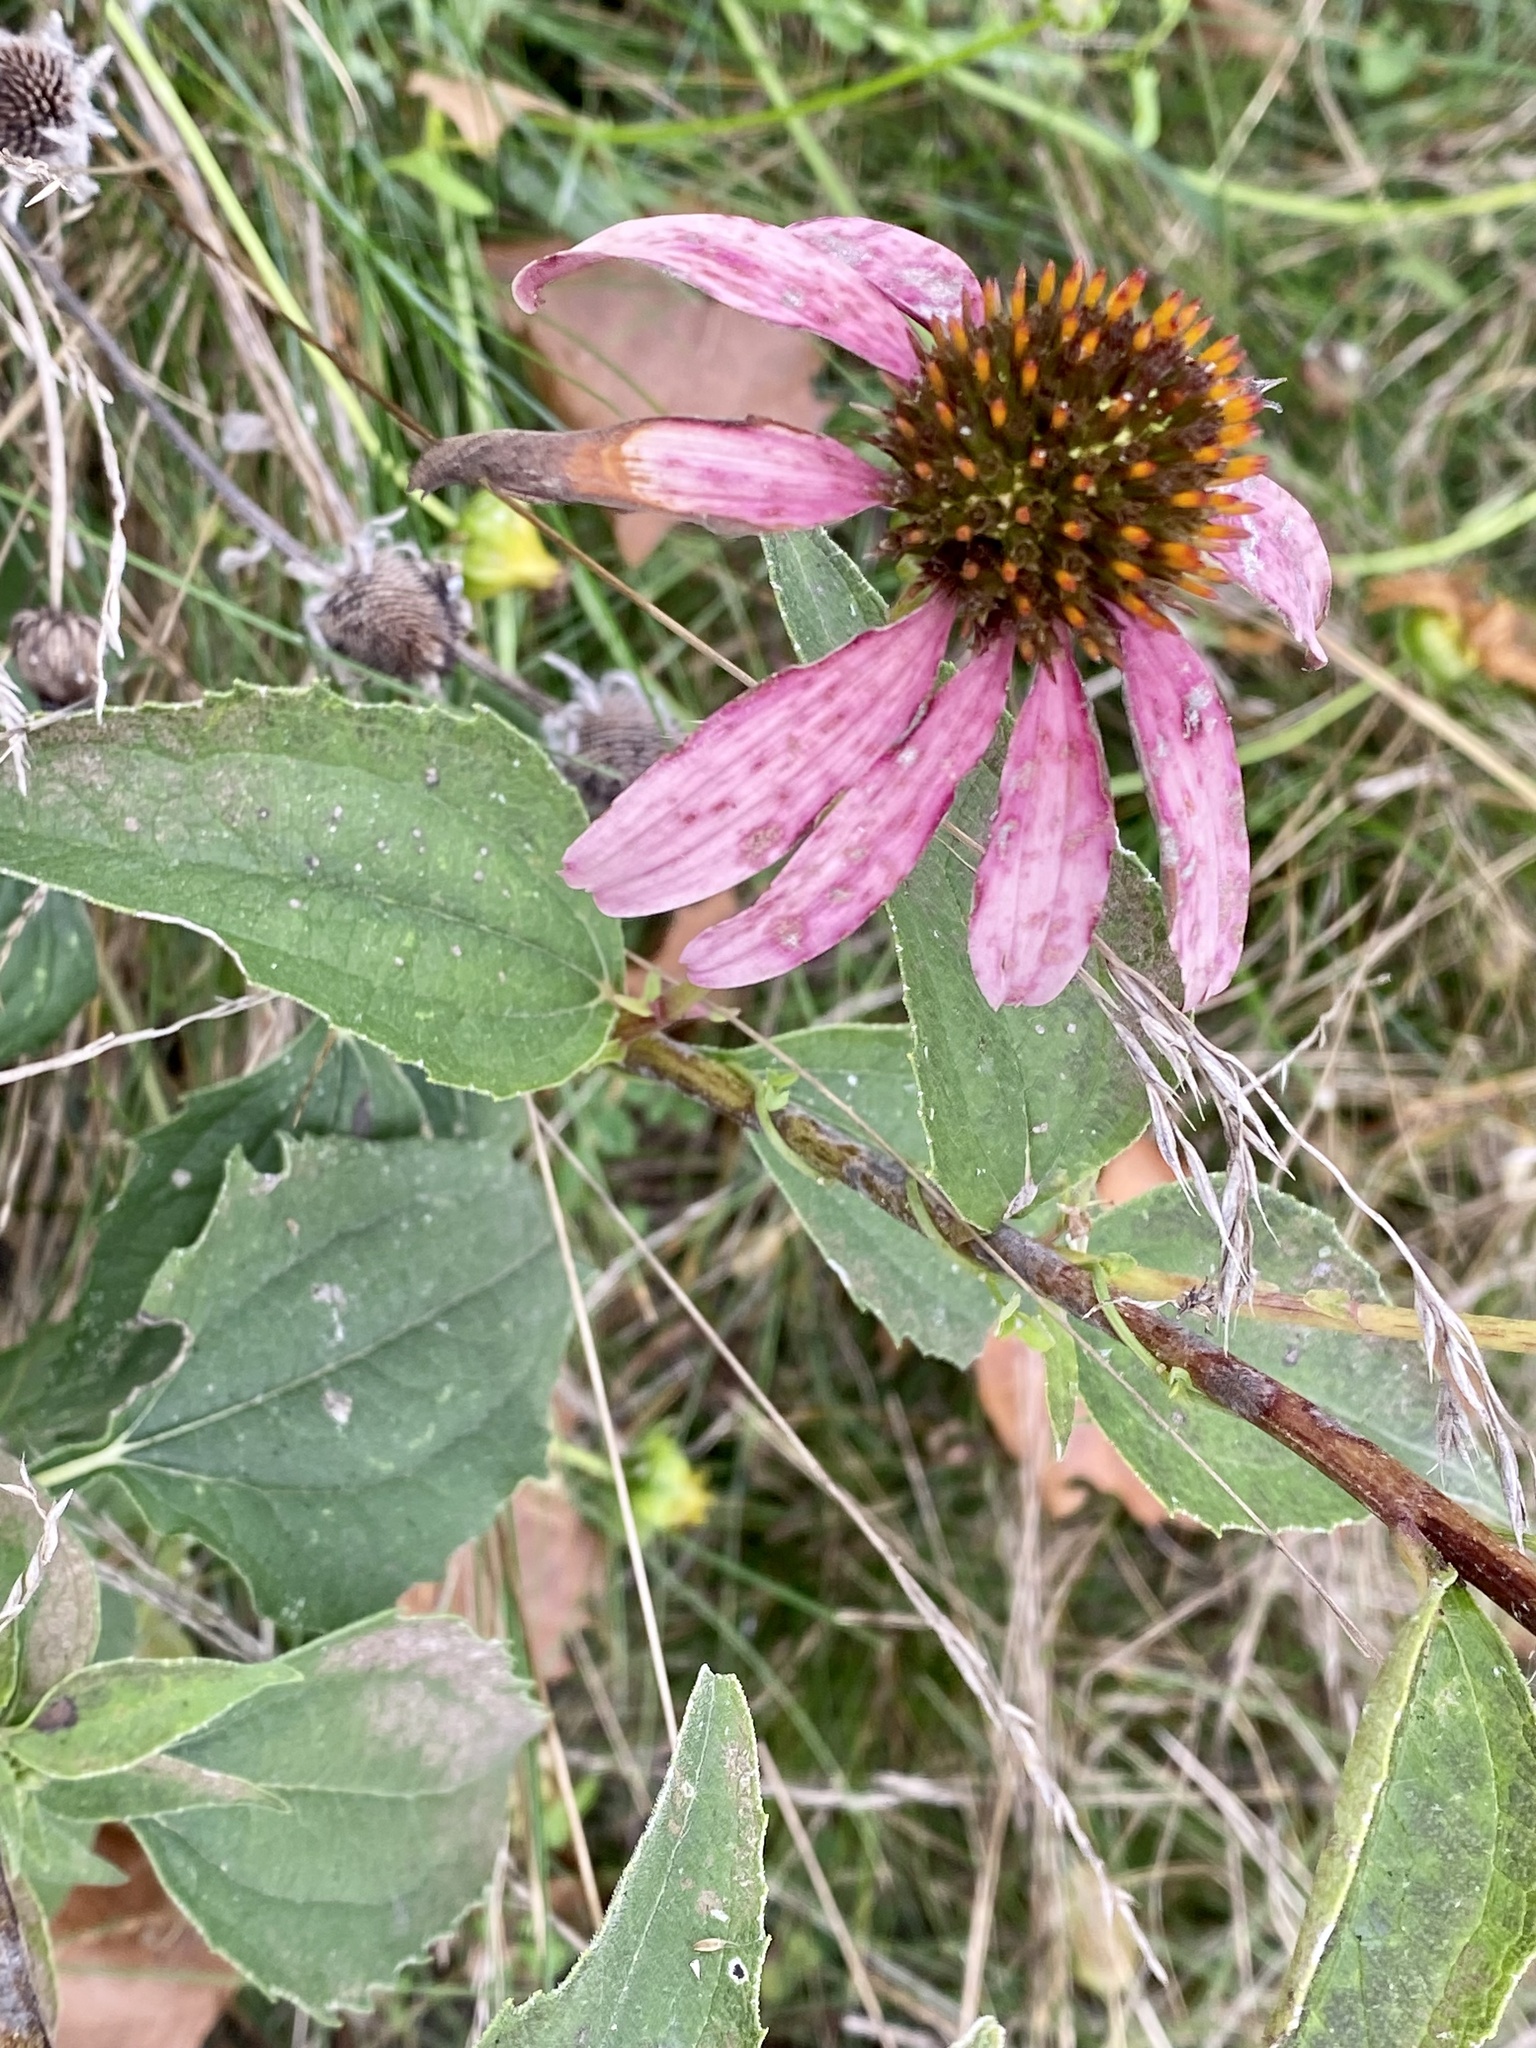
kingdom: Plantae
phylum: Tracheophyta
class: Magnoliopsida
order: Asterales
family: Asteraceae
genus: Echinacea
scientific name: Echinacea purpurea
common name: Broad-leaved purple coneflower
